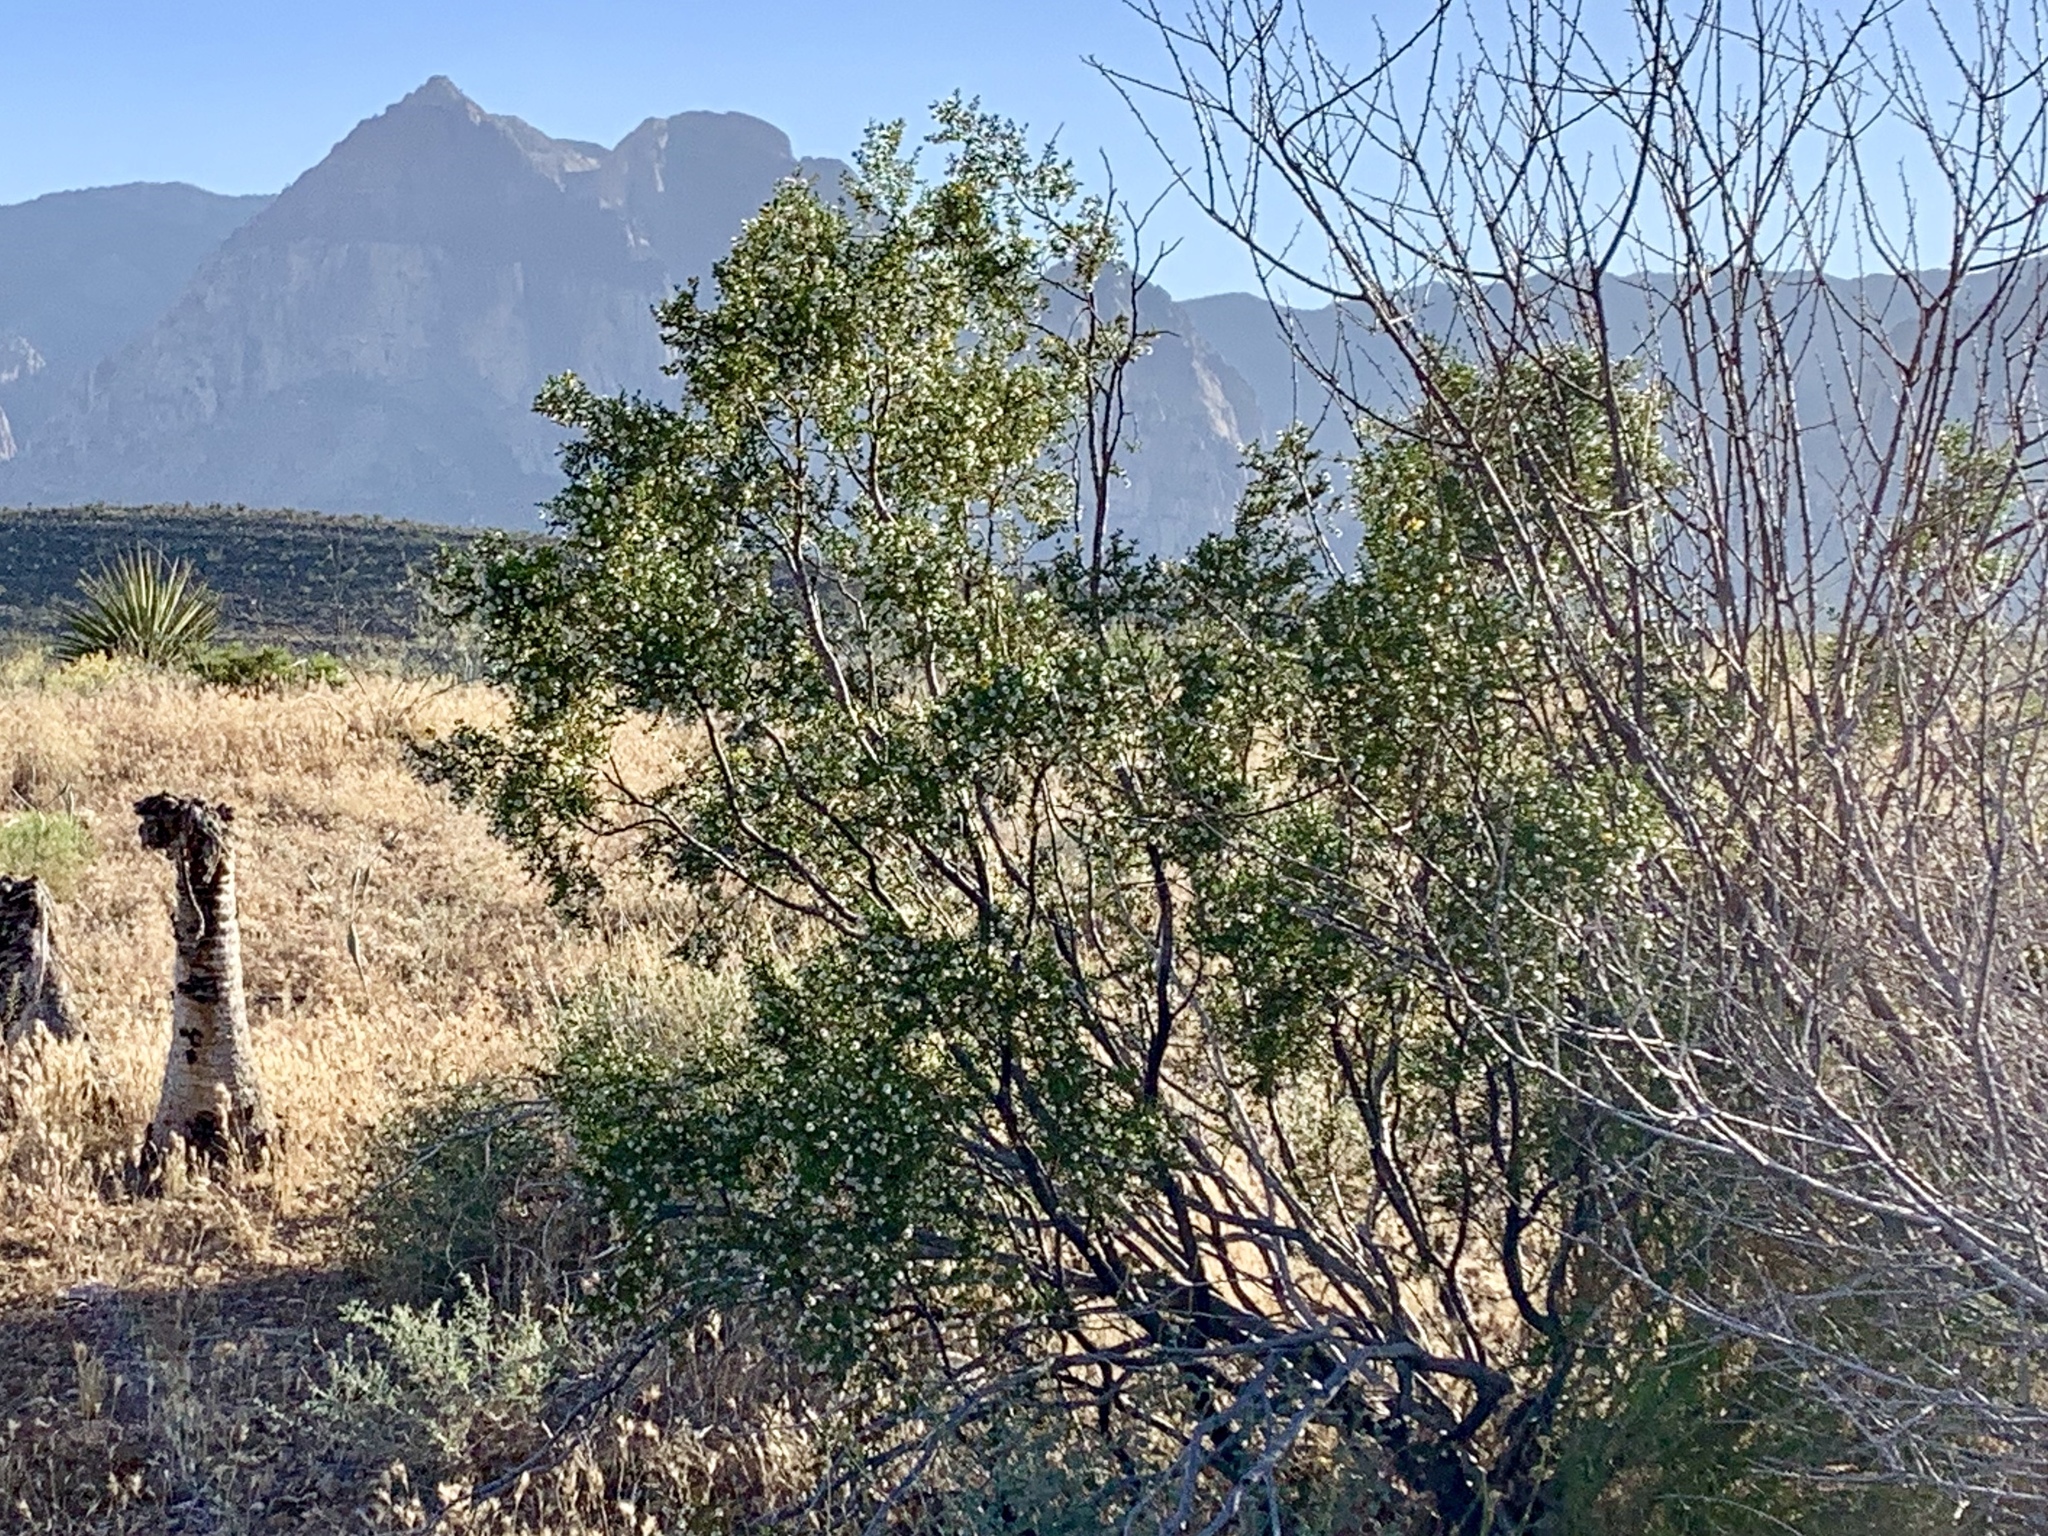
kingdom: Plantae
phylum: Tracheophyta
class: Magnoliopsida
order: Zygophyllales
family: Zygophyllaceae
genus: Larrea
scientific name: Larrea tridentata
